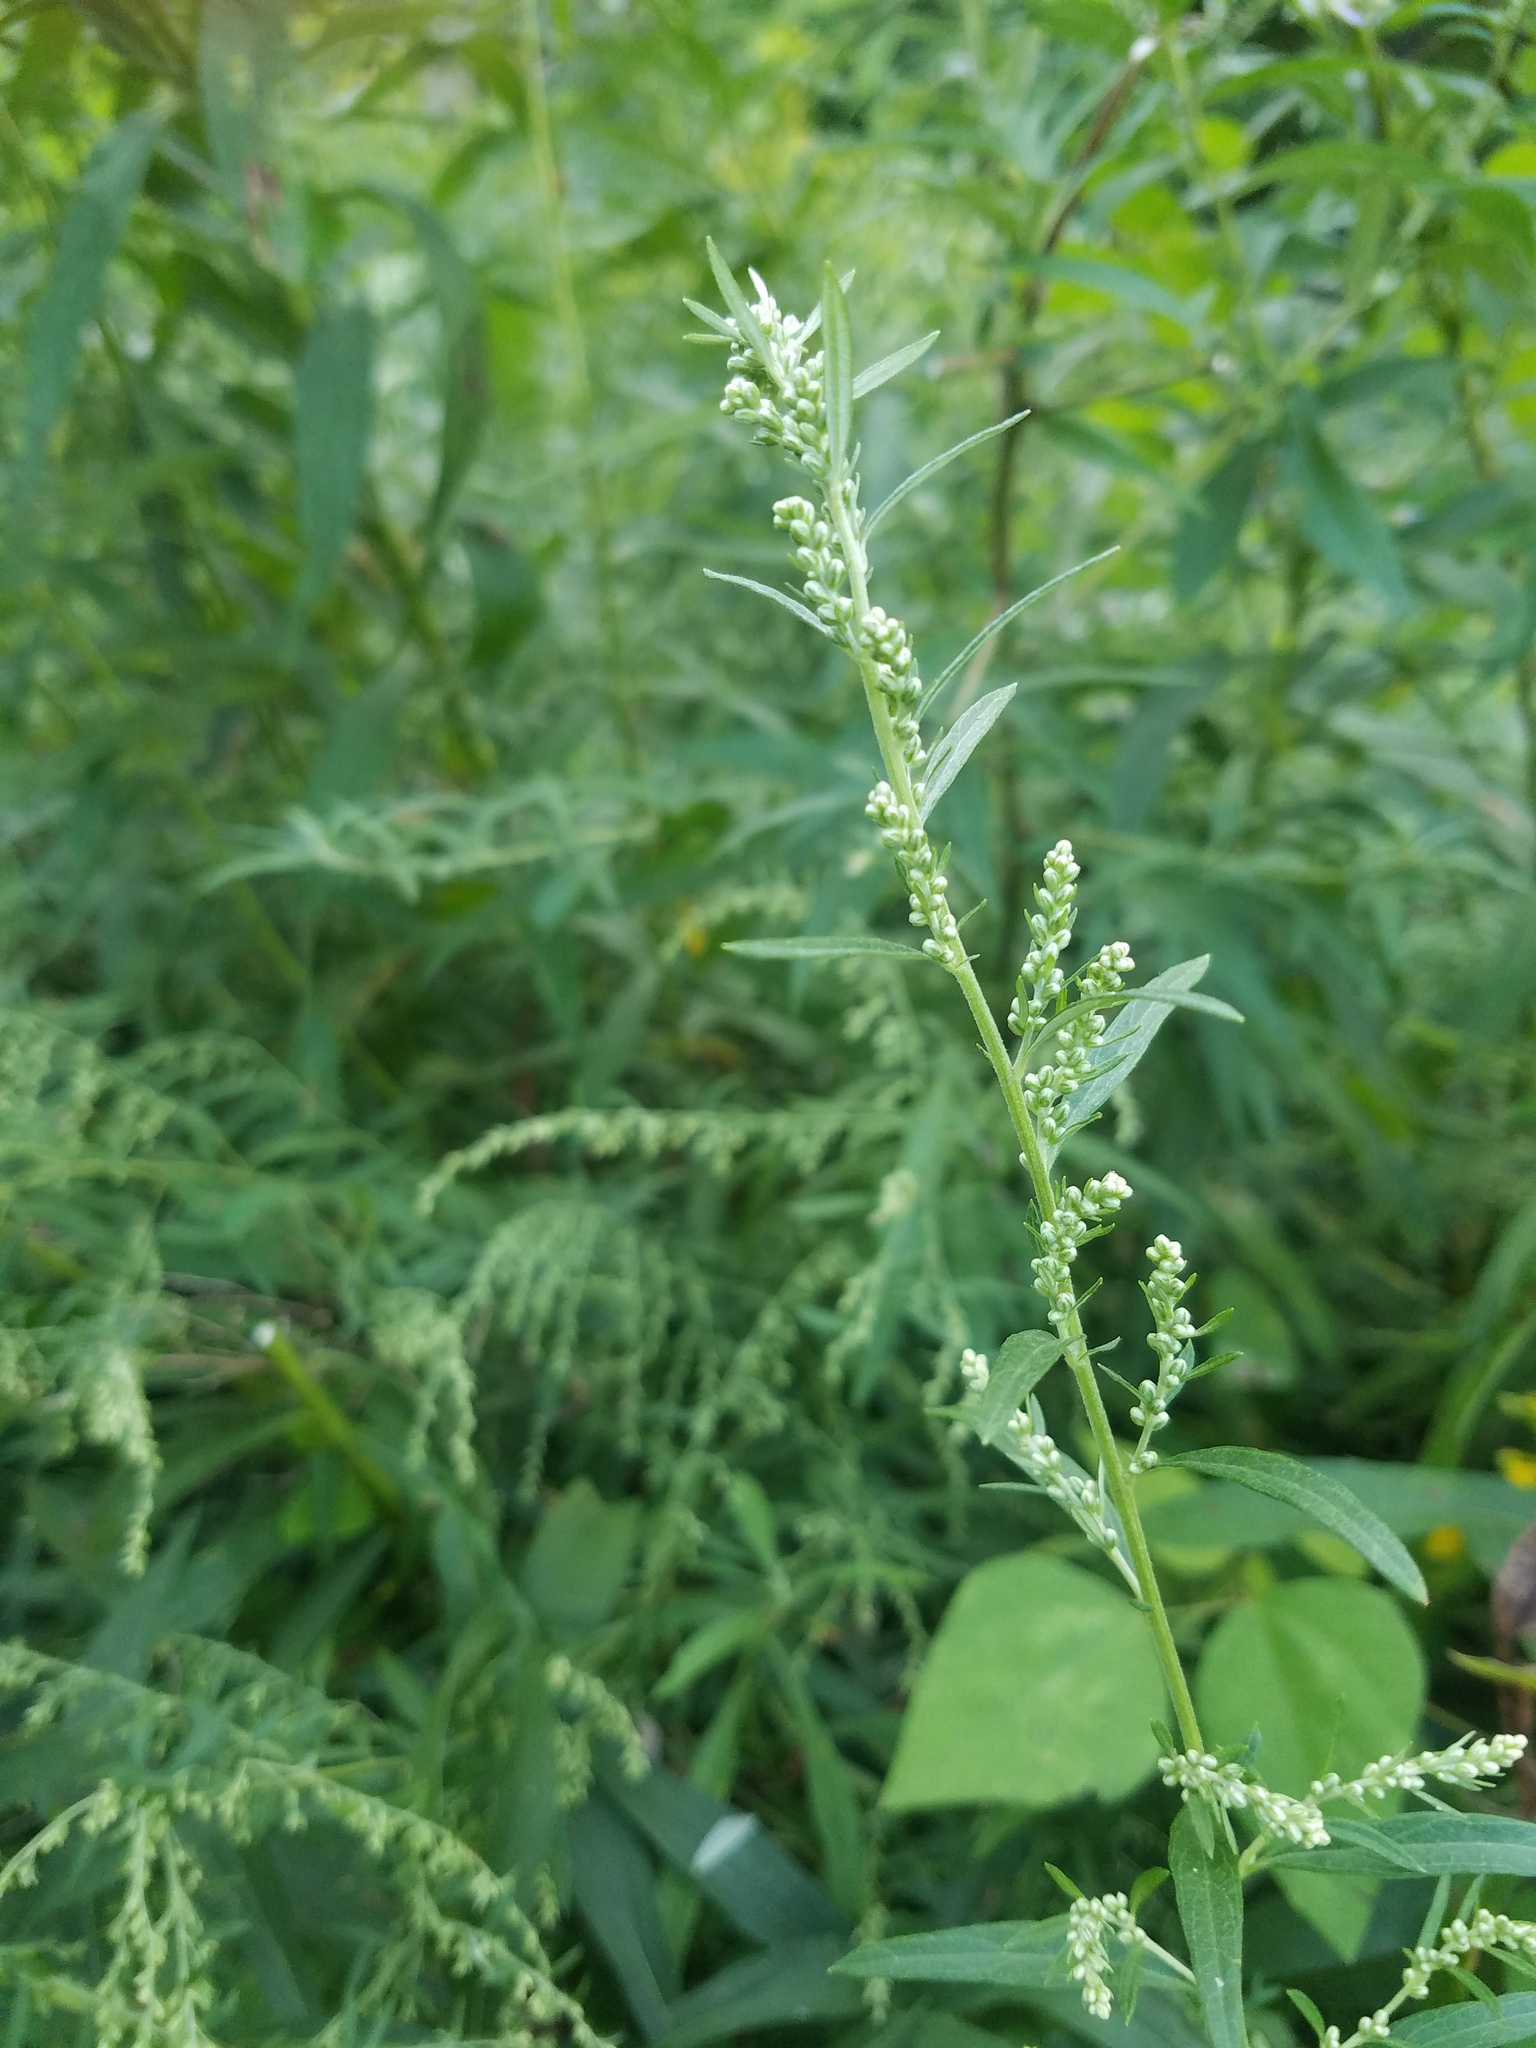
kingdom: Plantae
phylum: Tracheophyta
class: Magnoliopsida
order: Asterales
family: Asteraceae
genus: Artemisia
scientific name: Artemisia vulgaris
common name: Mugwort
